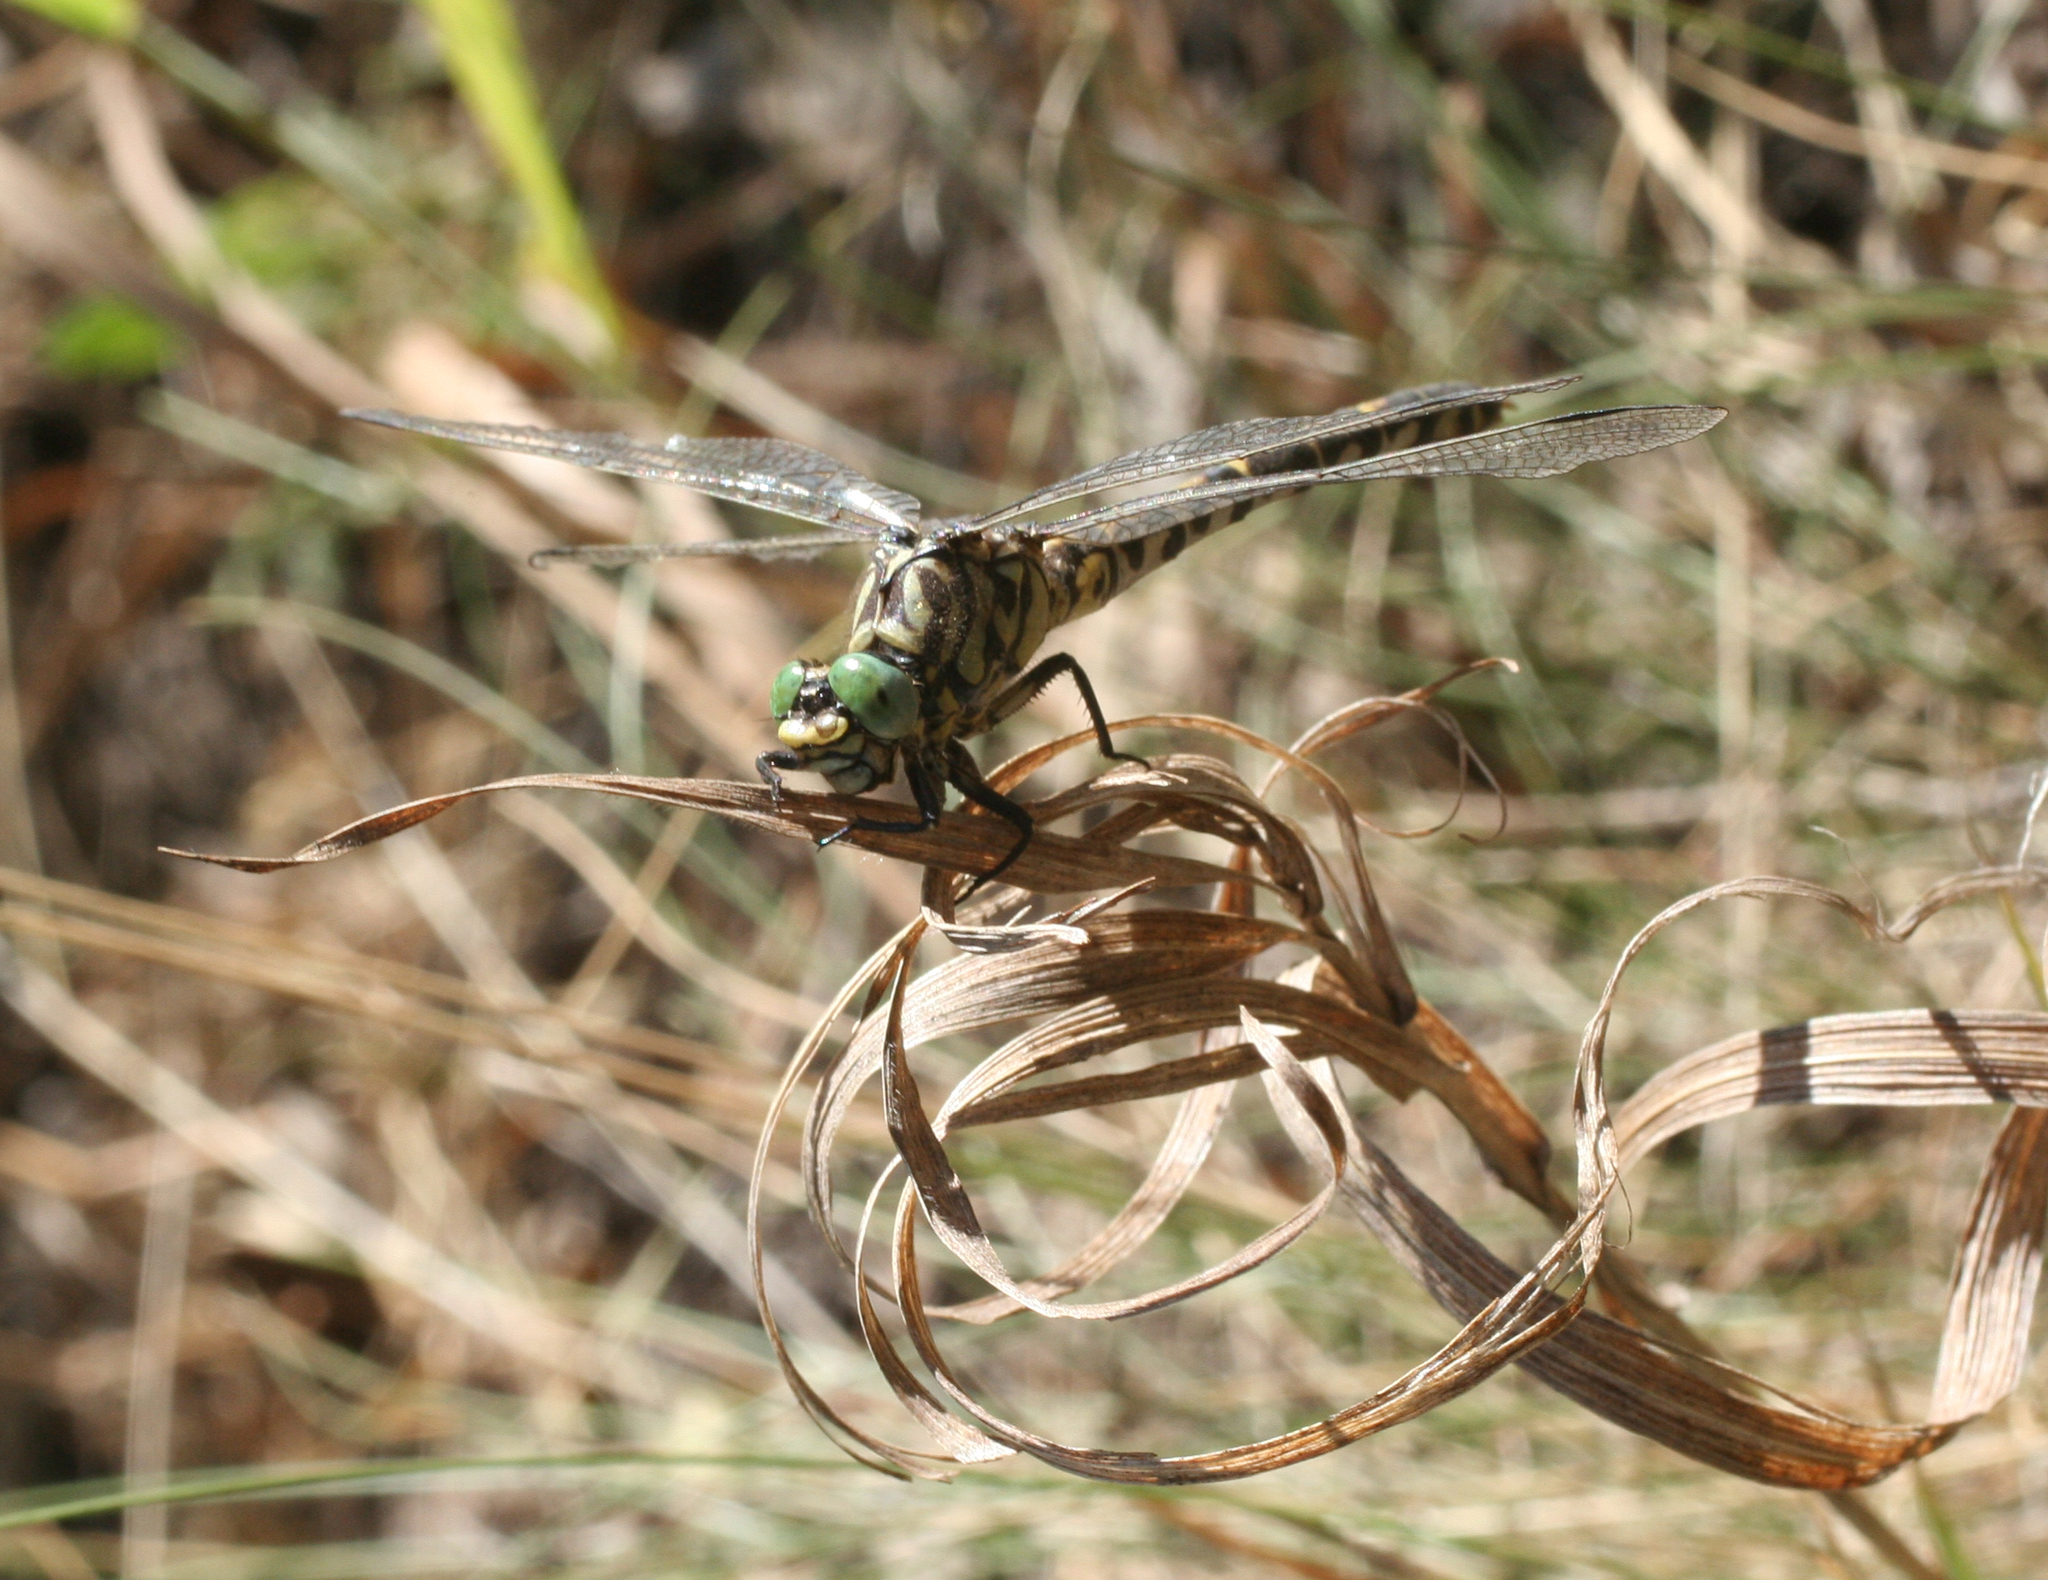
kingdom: Animalia
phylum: Arthropoda
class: Insecta
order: Odonata
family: Gomphidae
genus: Onychogomphus
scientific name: Onychogomphus forcipatus
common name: Small pincertail
